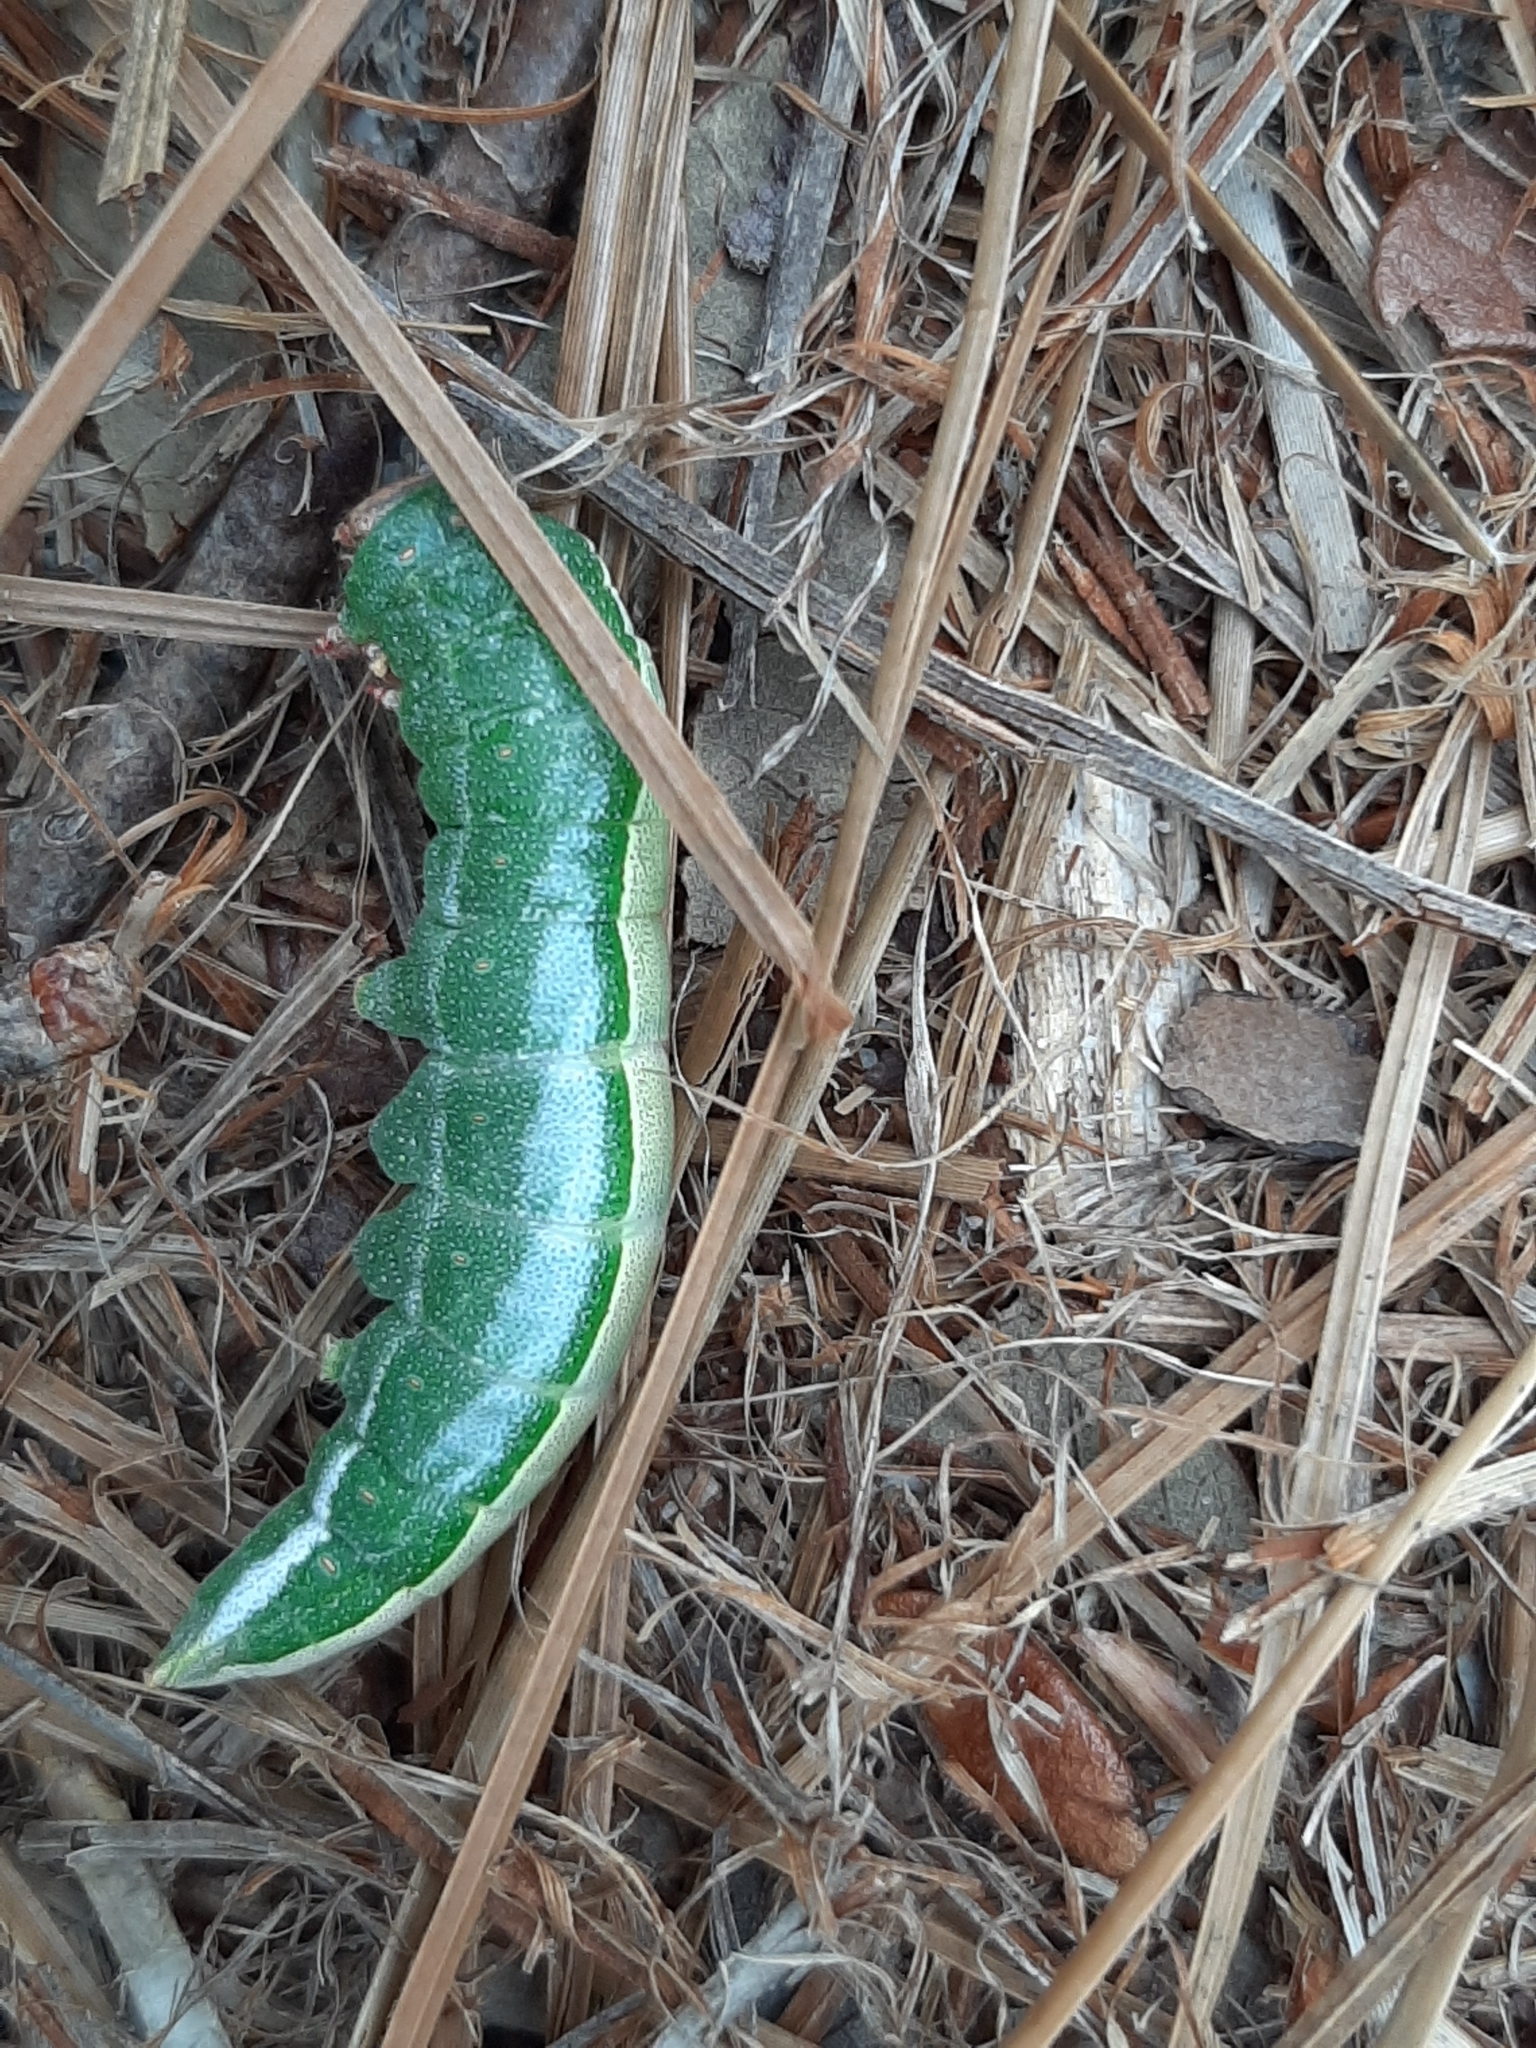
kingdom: Animalia
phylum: Arthropoda
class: Insecta
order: Lepidoptera
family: Notodontidae
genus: Heterocampa
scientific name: Heterocampa astarte
